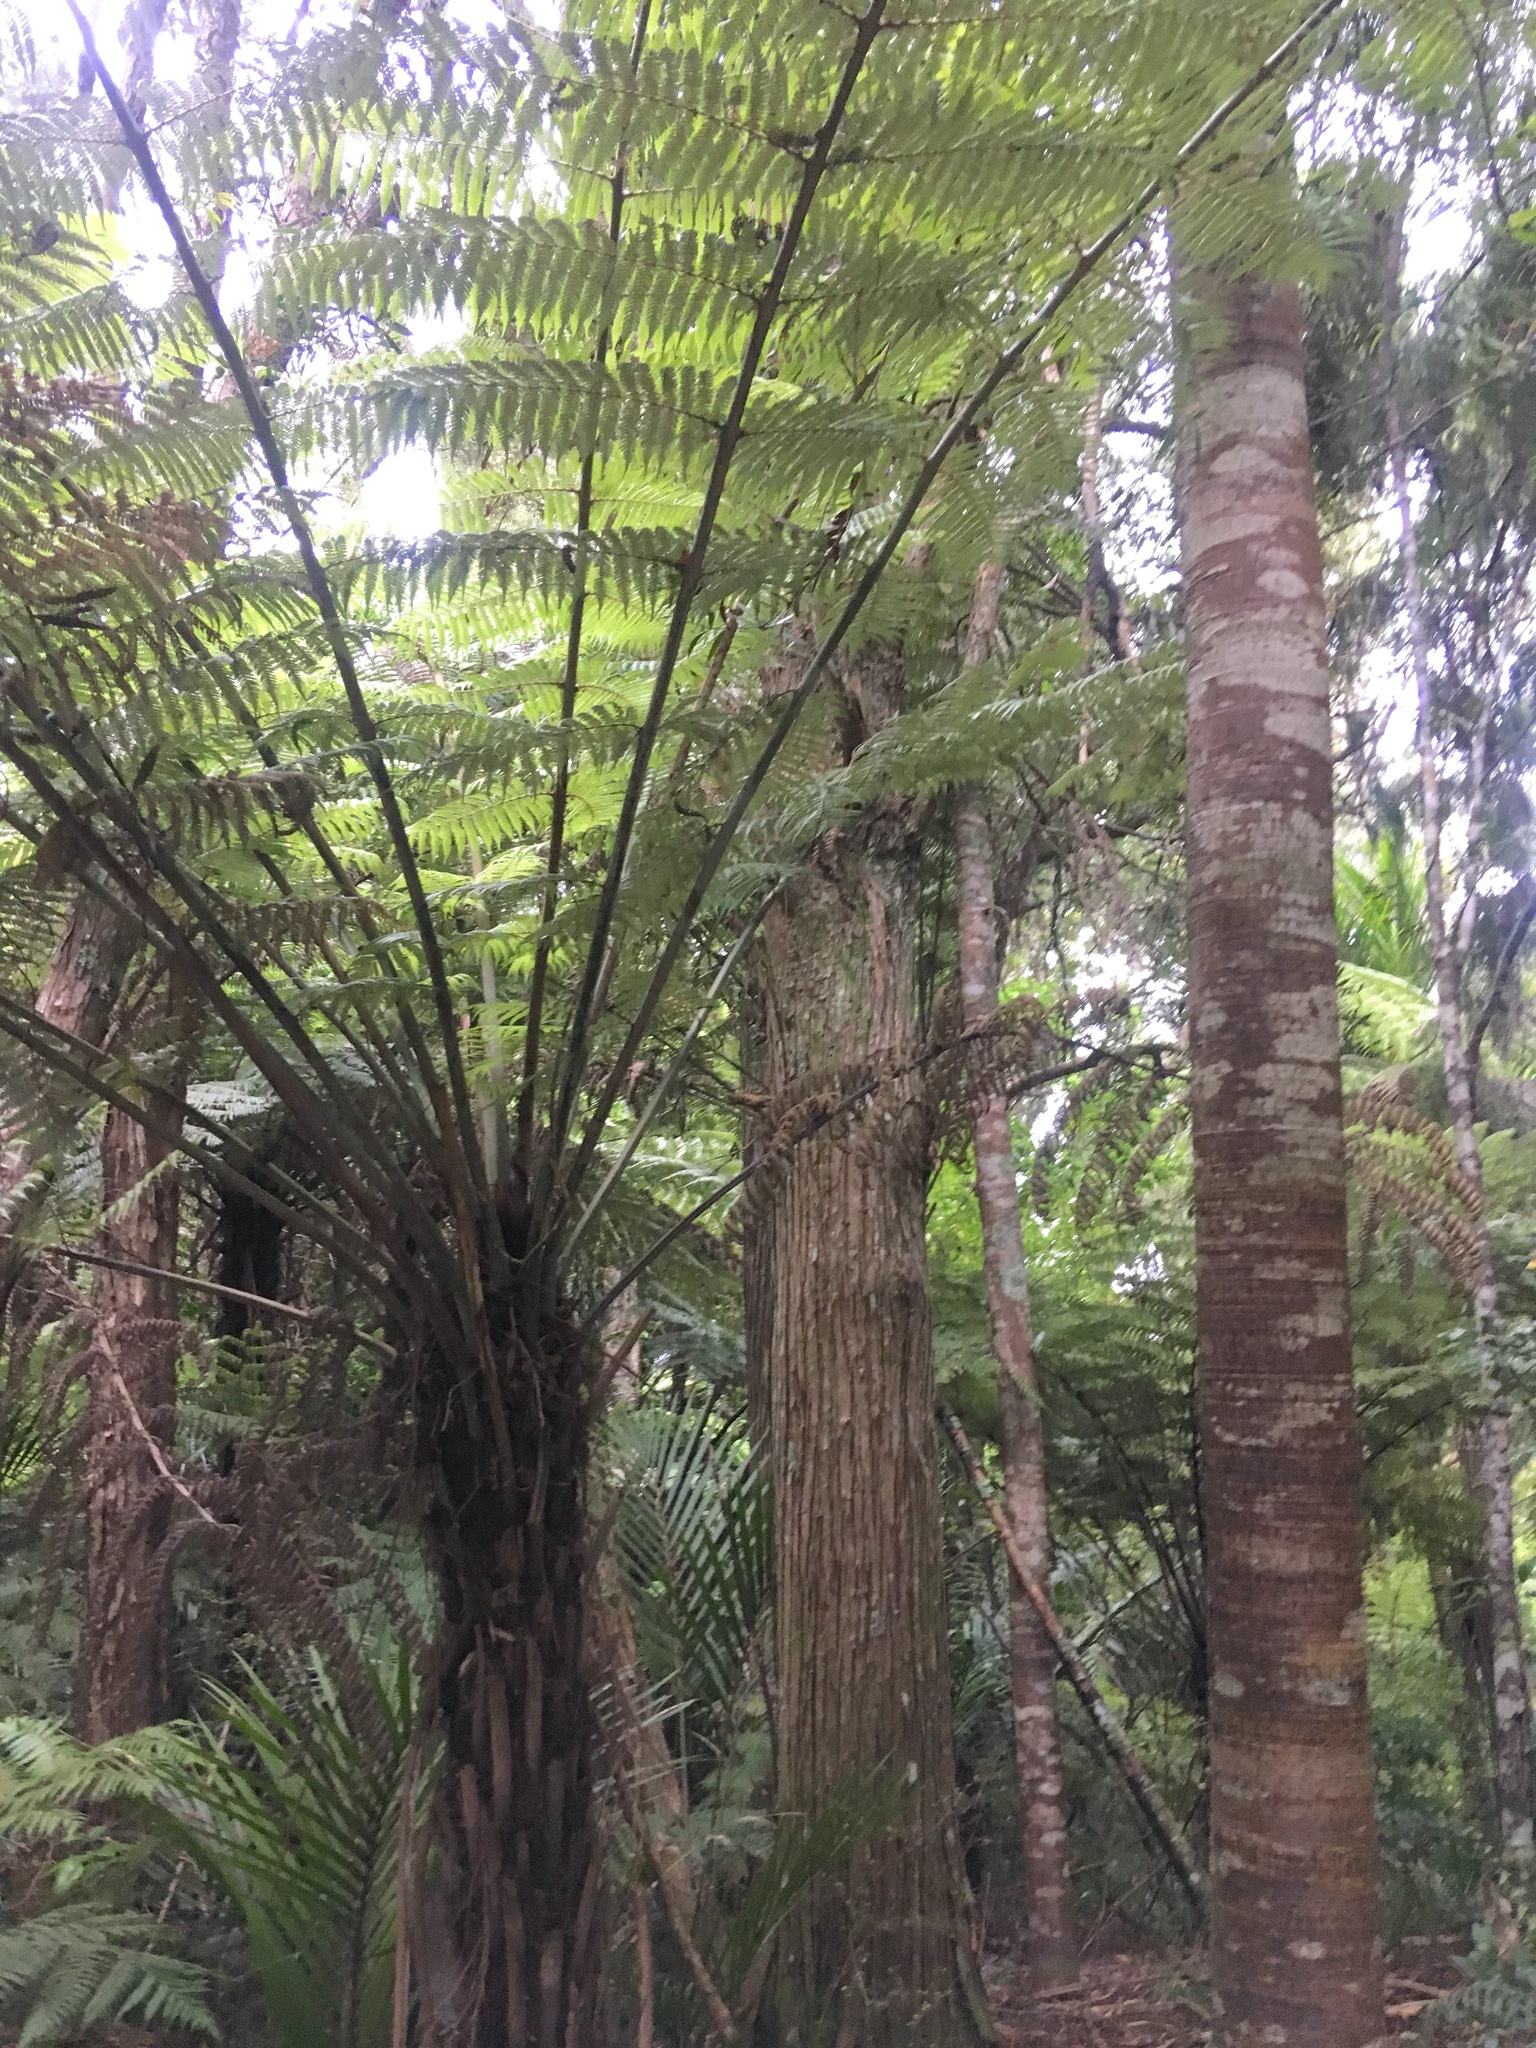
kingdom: Plantae
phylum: Tracheophyta
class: Pinopsida
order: Pinales
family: Araucariaceae
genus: Agathis
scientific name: Agathis australis
